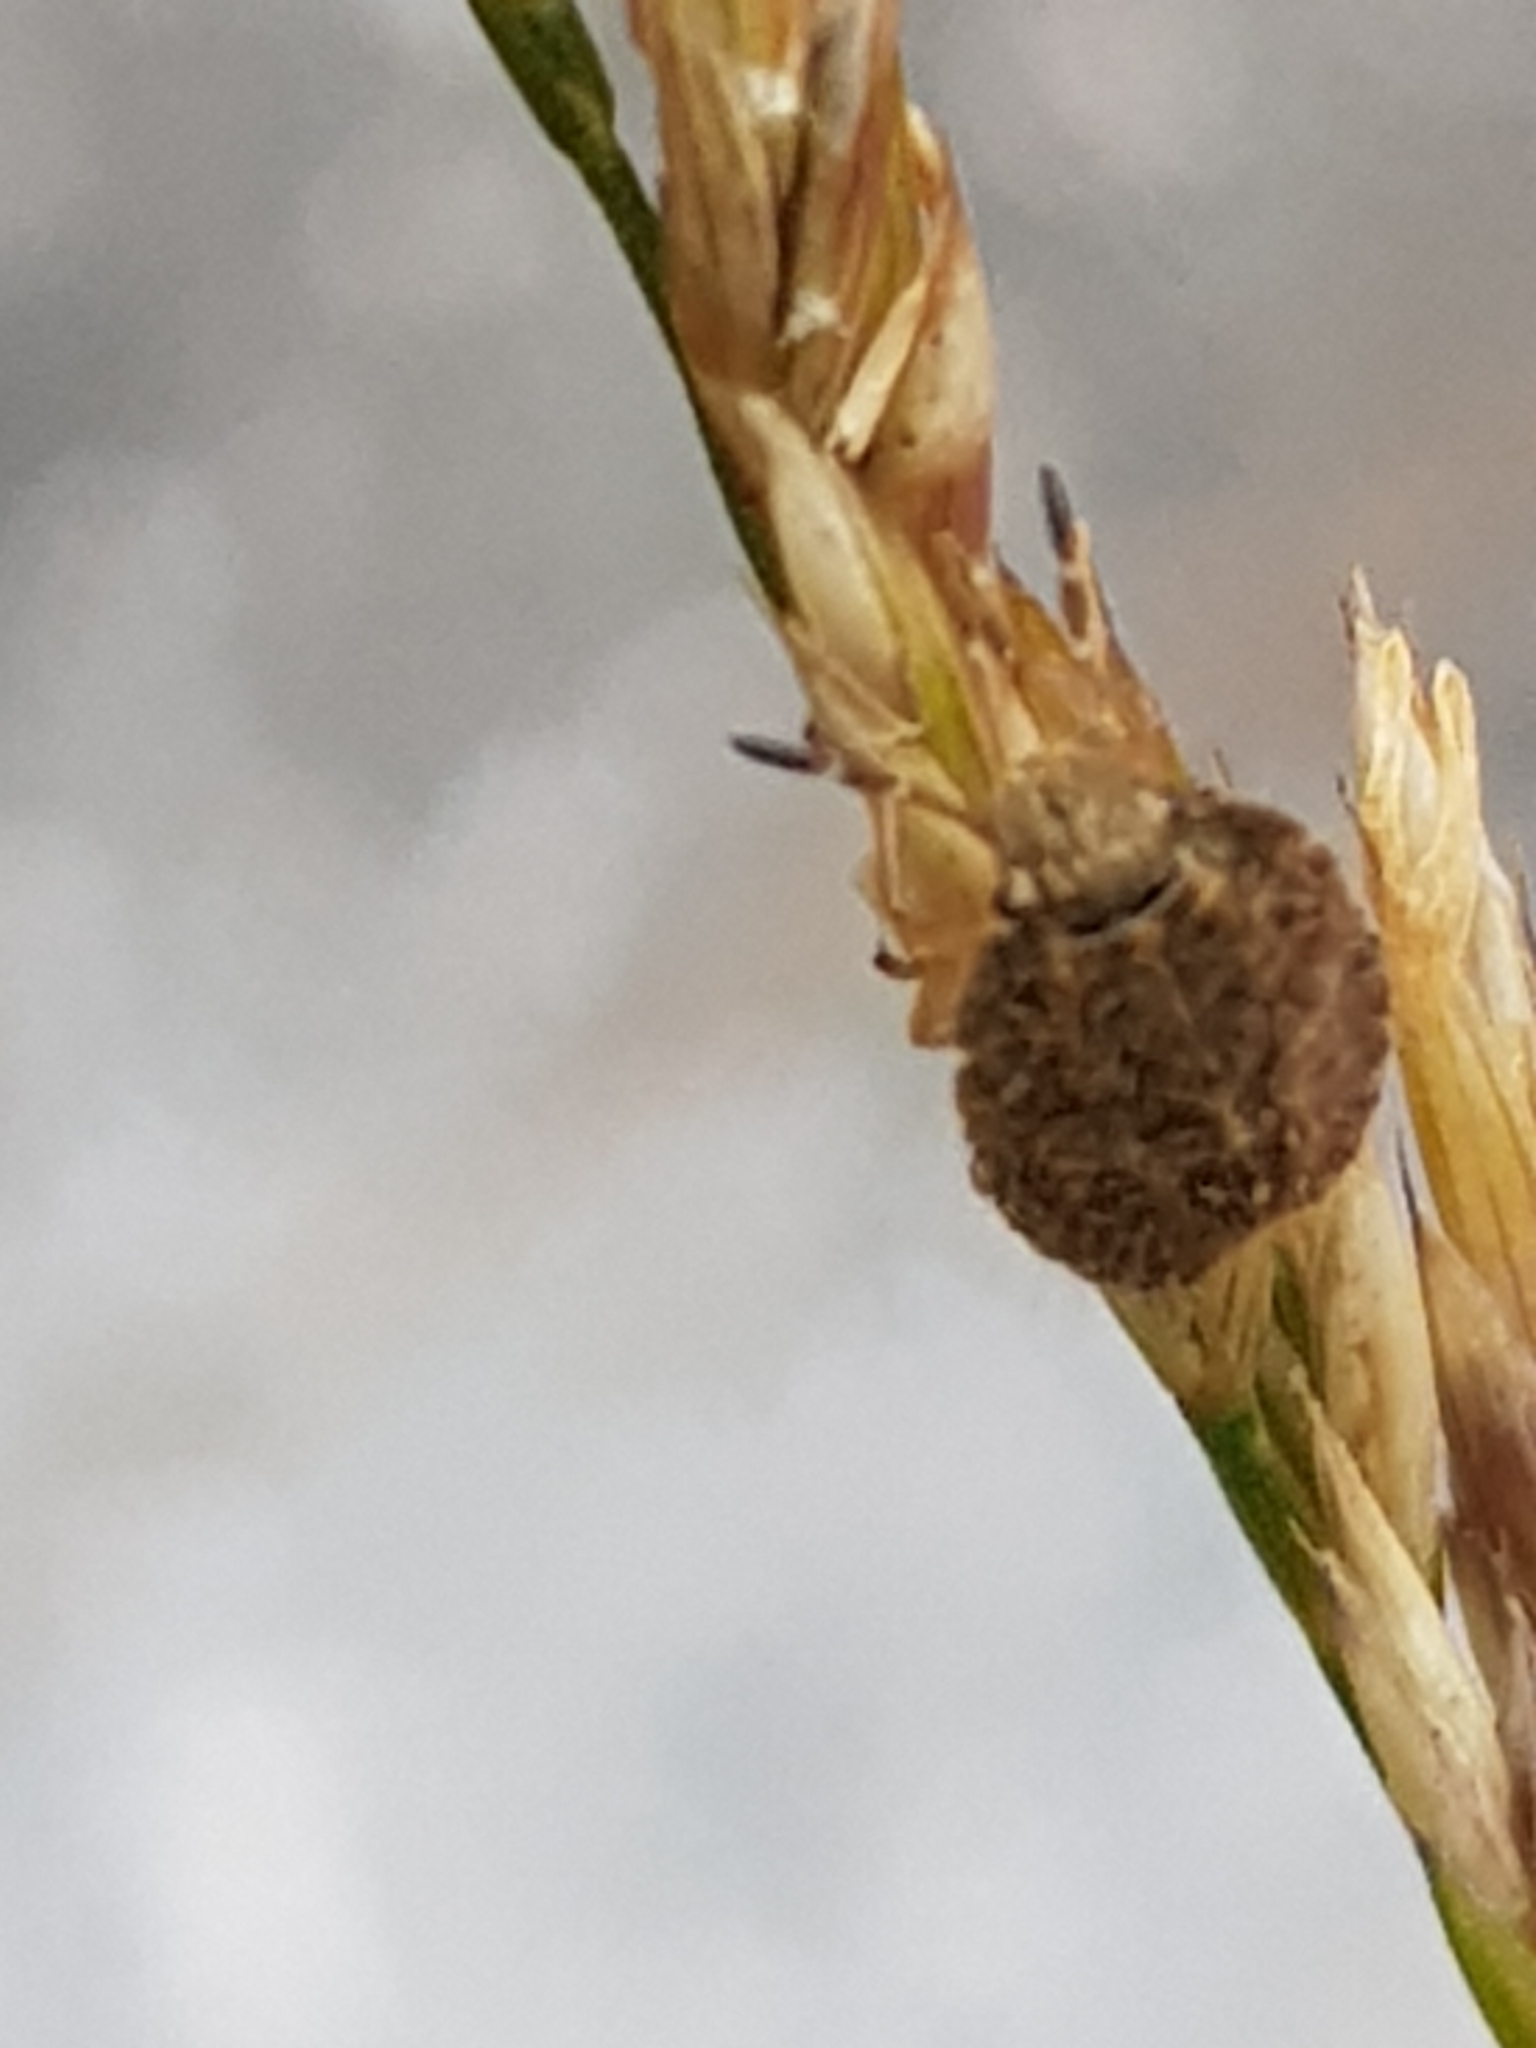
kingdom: Animalia
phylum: Arthropoda
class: Insecta
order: Hemiptera
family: Pentatomidae
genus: Dolycoris
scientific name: Dolycoris baccarum
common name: Sloe bug
